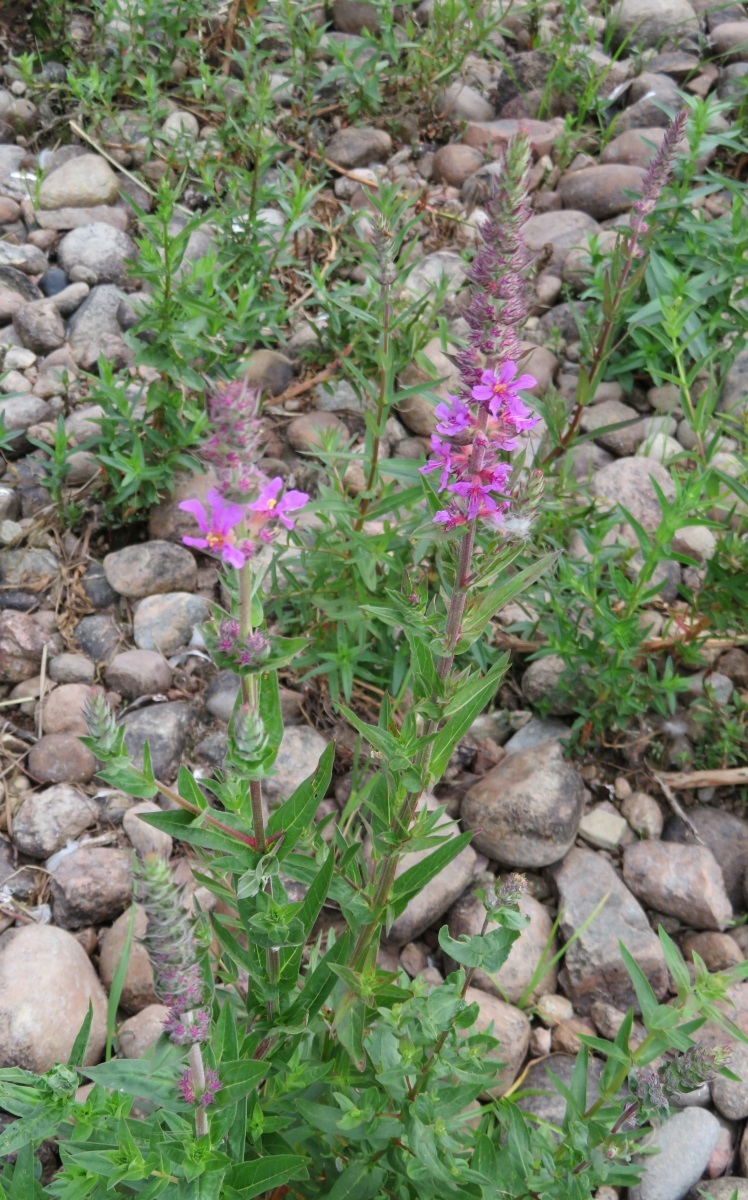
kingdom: Plantae
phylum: Tracheophyta
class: Magnoliopsida
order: Myrtales
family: Lythraceae
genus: Lythrum
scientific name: Lythrum salicaria
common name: Purple loosestrife
